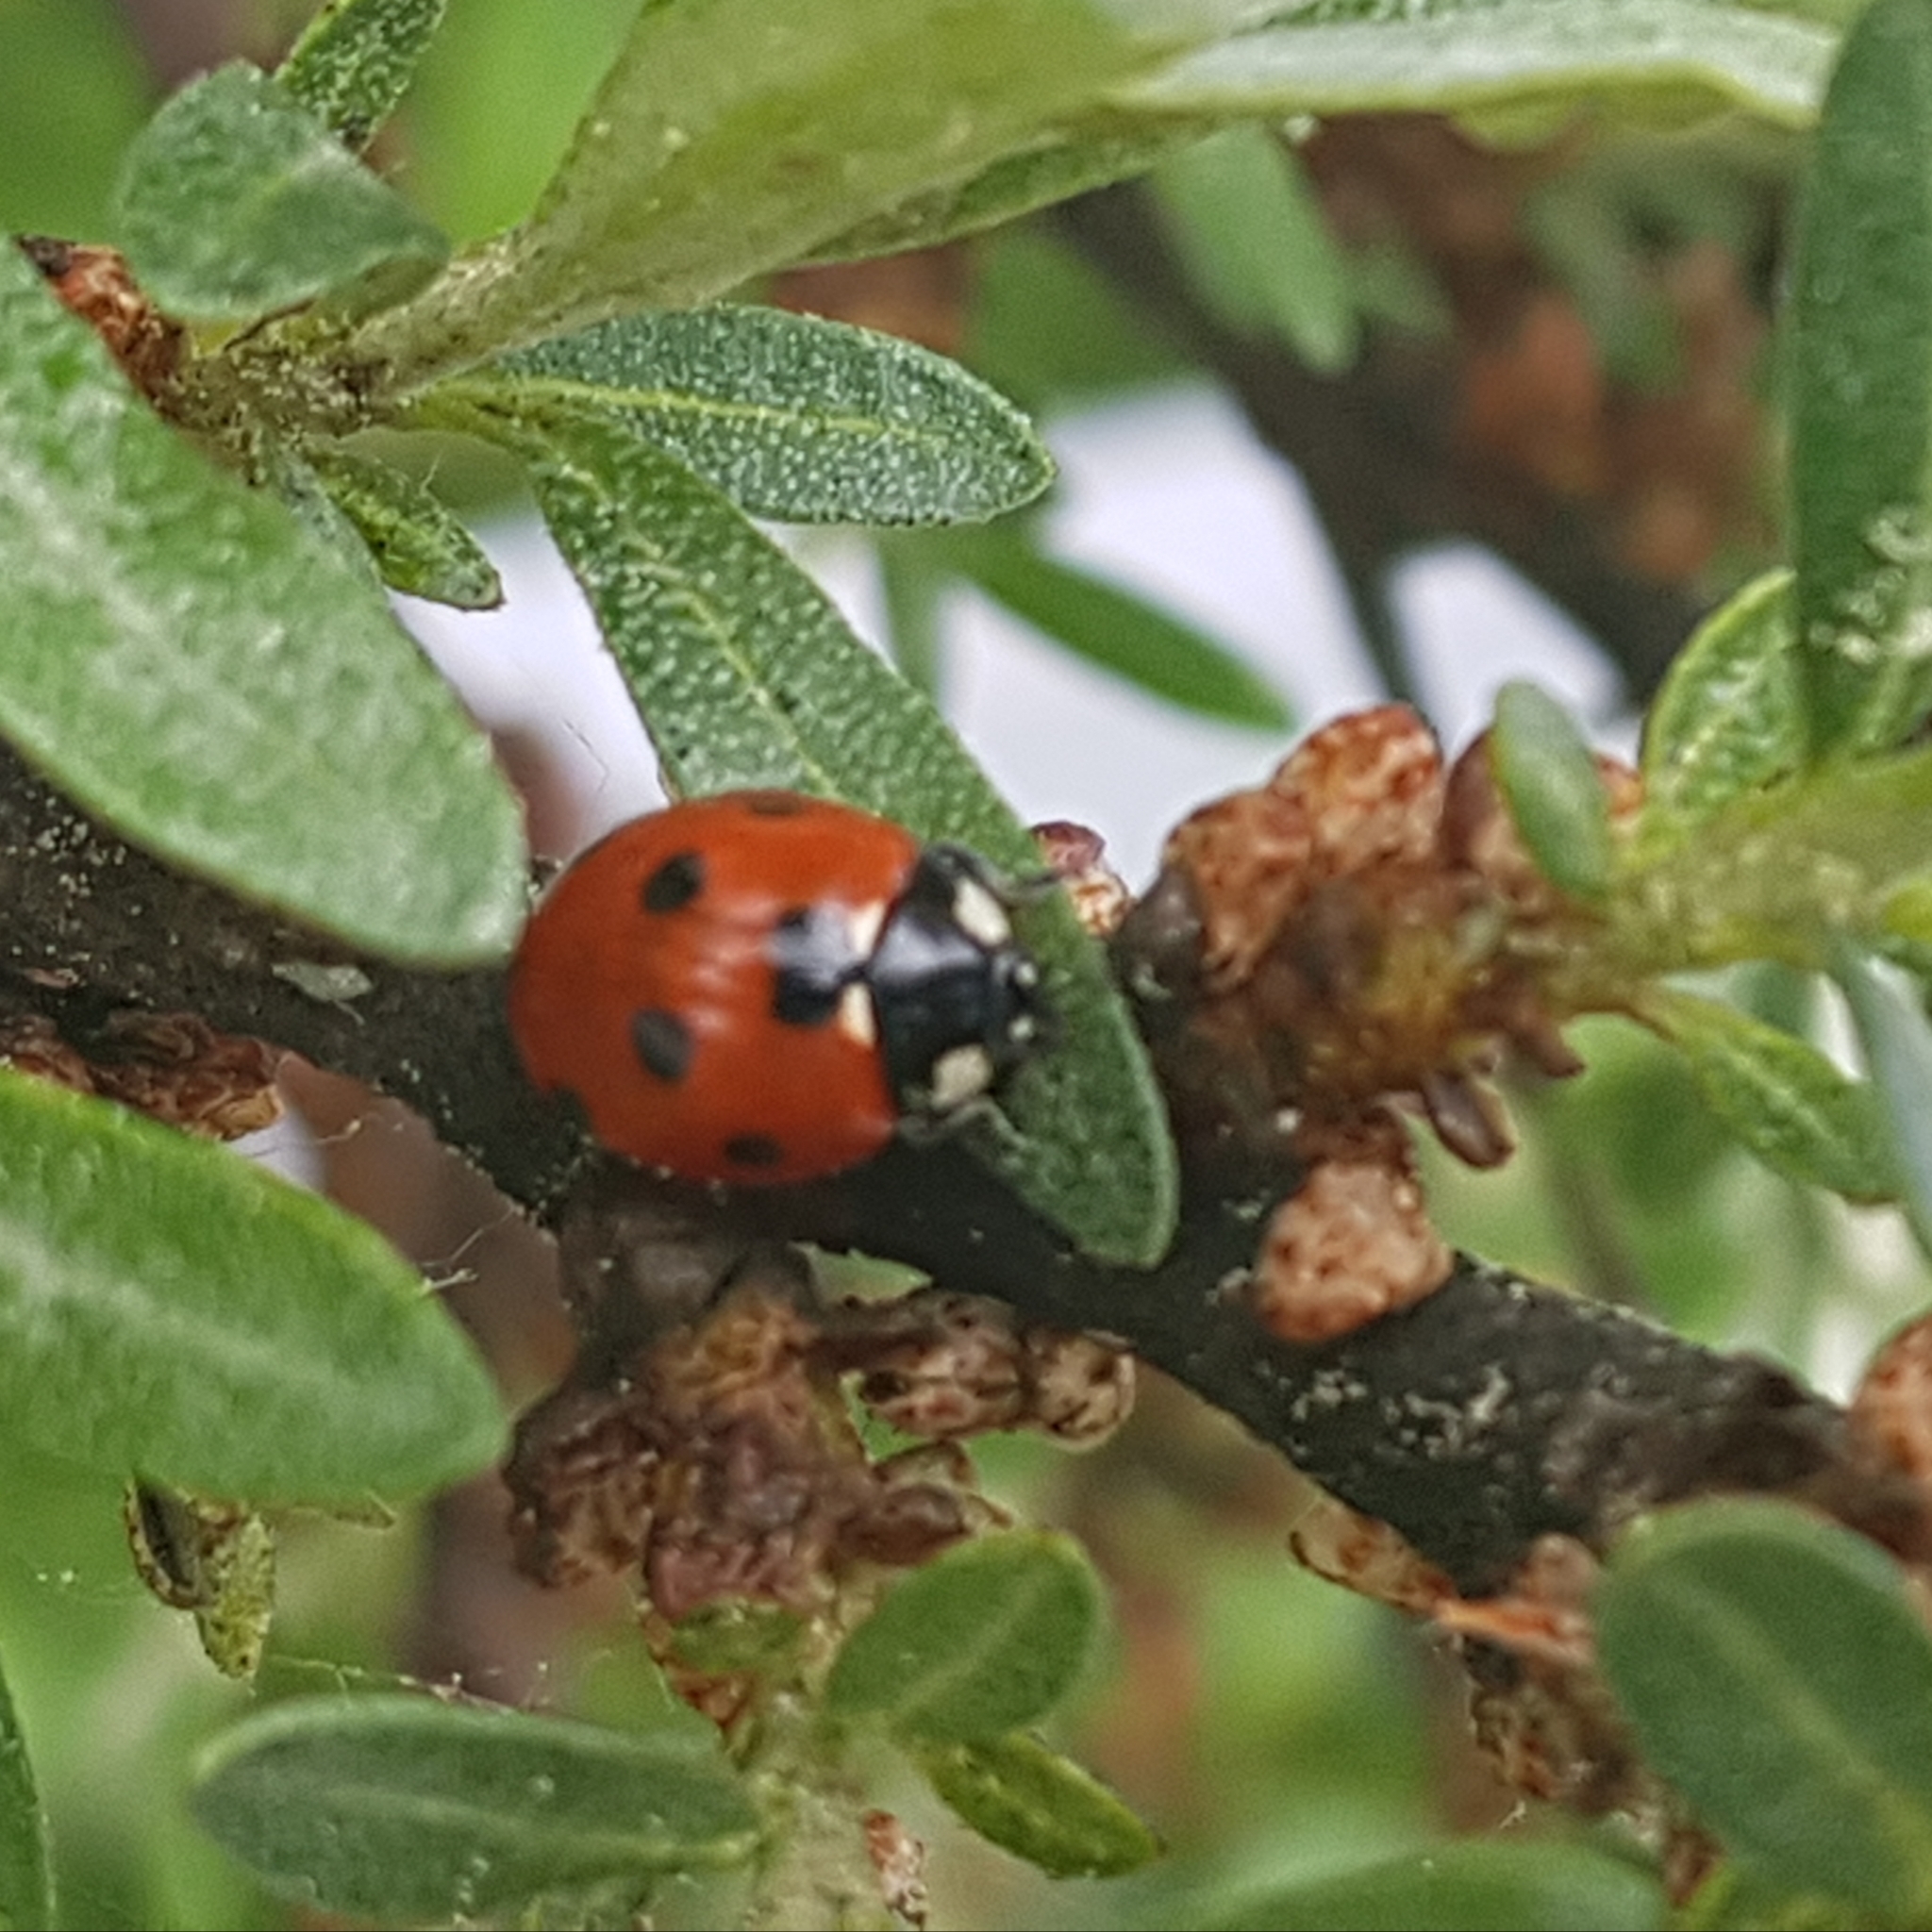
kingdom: Animalia
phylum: Arthropoda
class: Insecta
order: Coleoptera
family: Coccinellidae
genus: Coccinella
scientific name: Coccinella septempunctata
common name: Sevenspotted lady beetle
